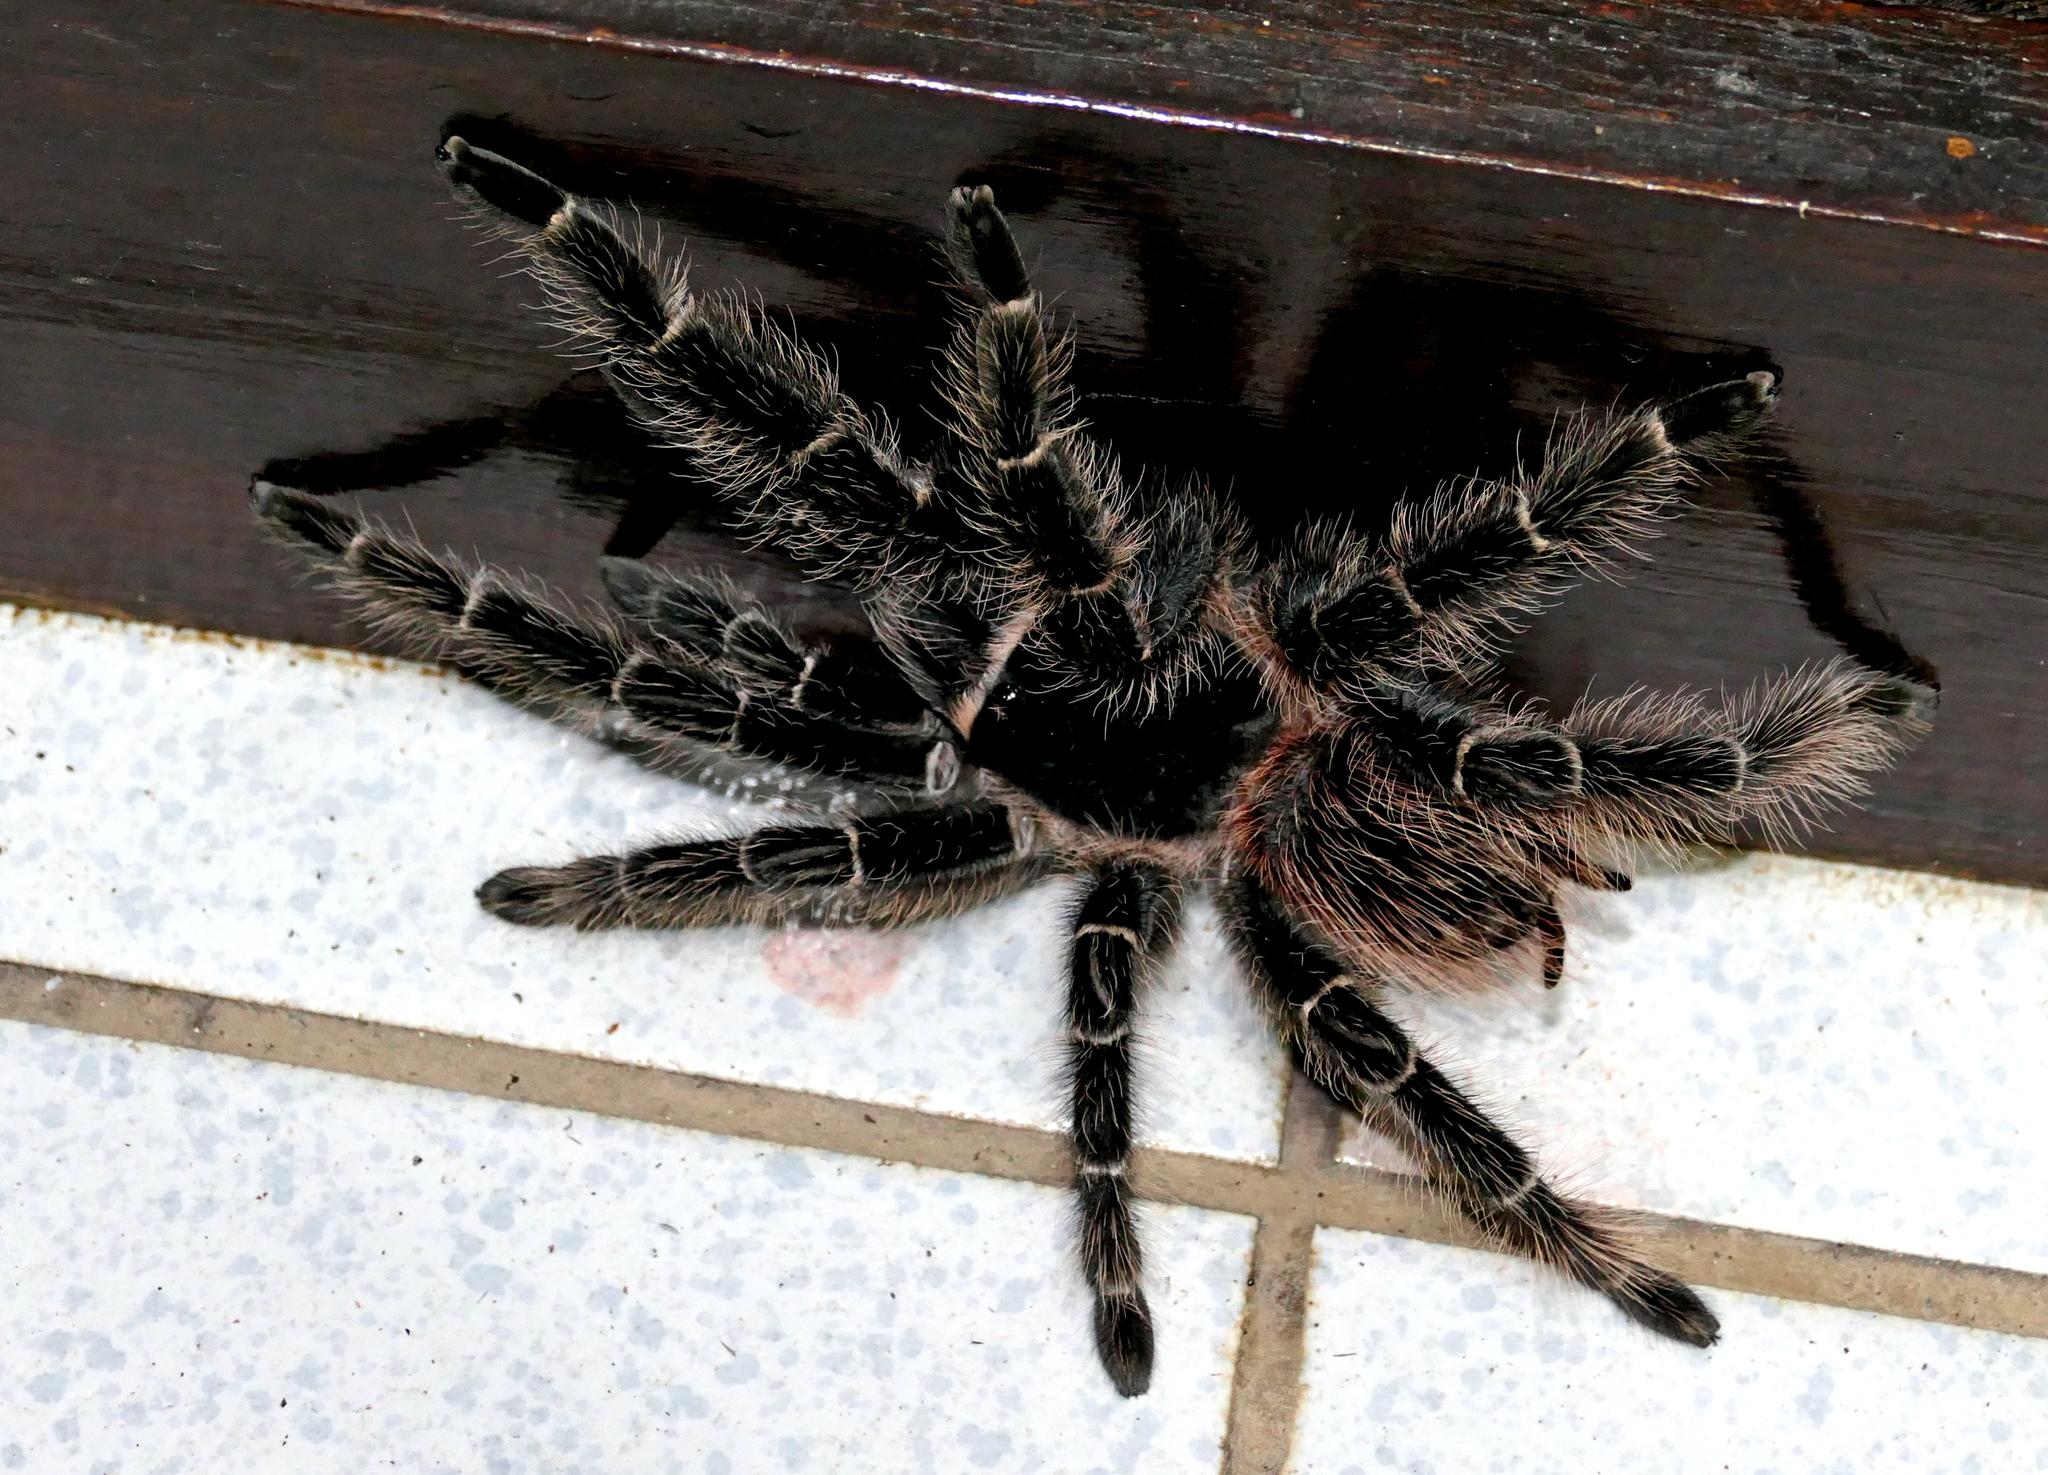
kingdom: Animalia
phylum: Arthropoda
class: Arachnida
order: Araneae
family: Theraphosidae
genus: Lasiodora
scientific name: Lasiodora parahybana
